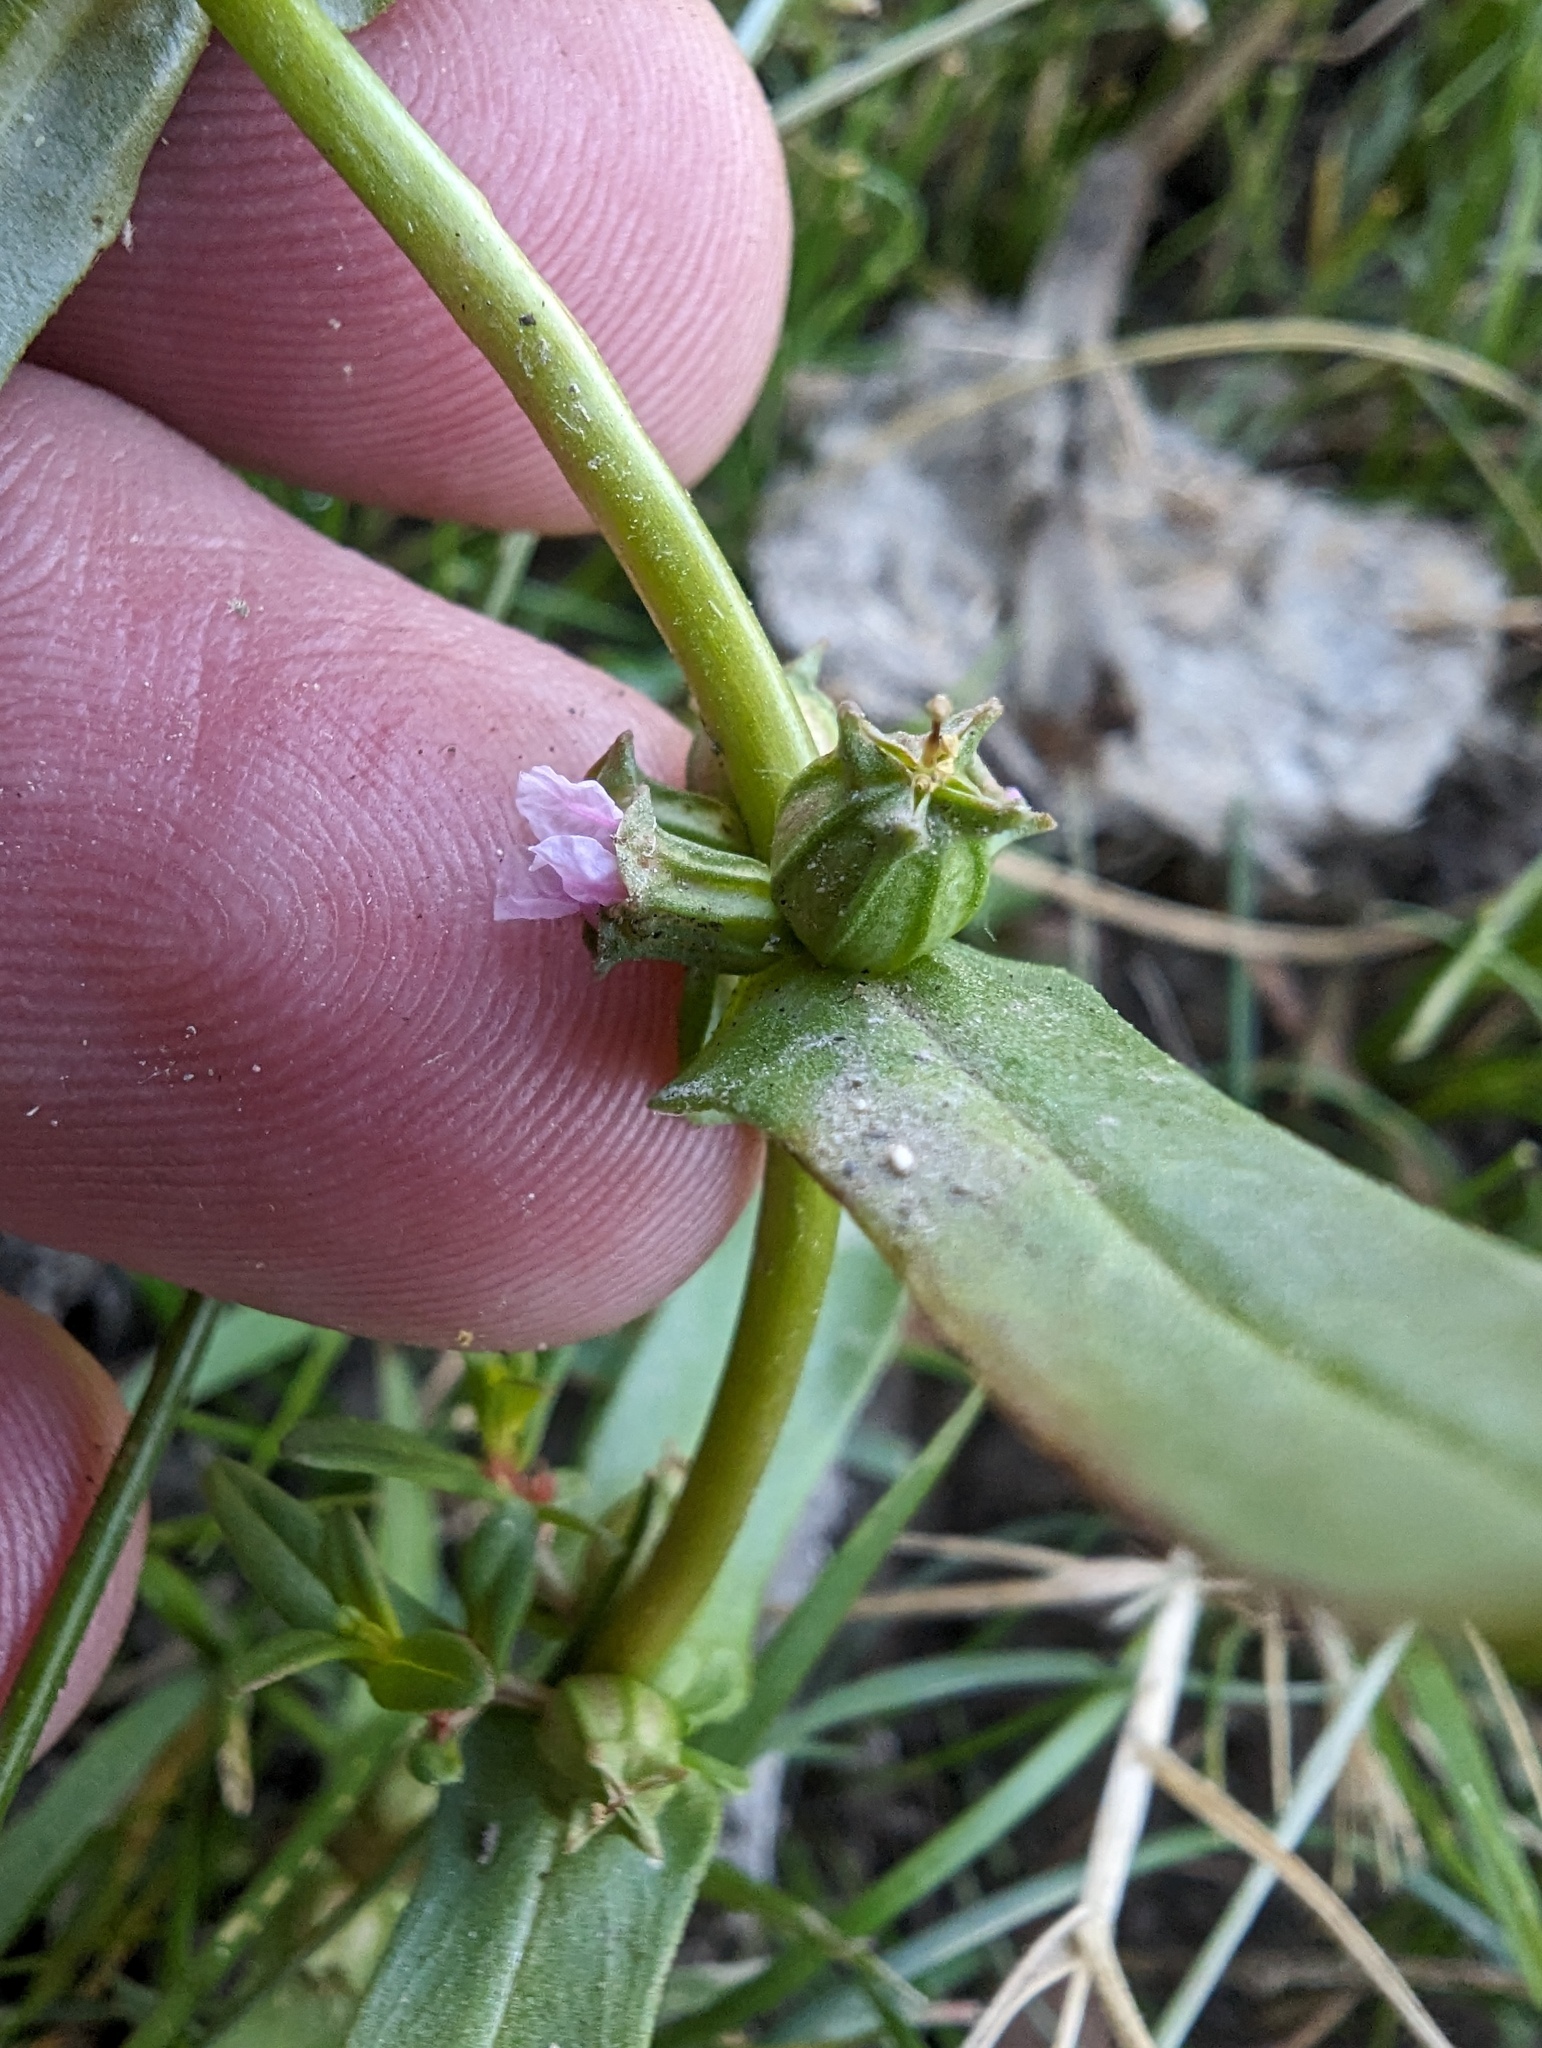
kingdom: Plantae
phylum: Tracheophyta
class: Magnoliopsida
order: Myrtales
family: Lythraceae
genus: Ammannia
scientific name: Ammannia robusta
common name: Grand ammannia
